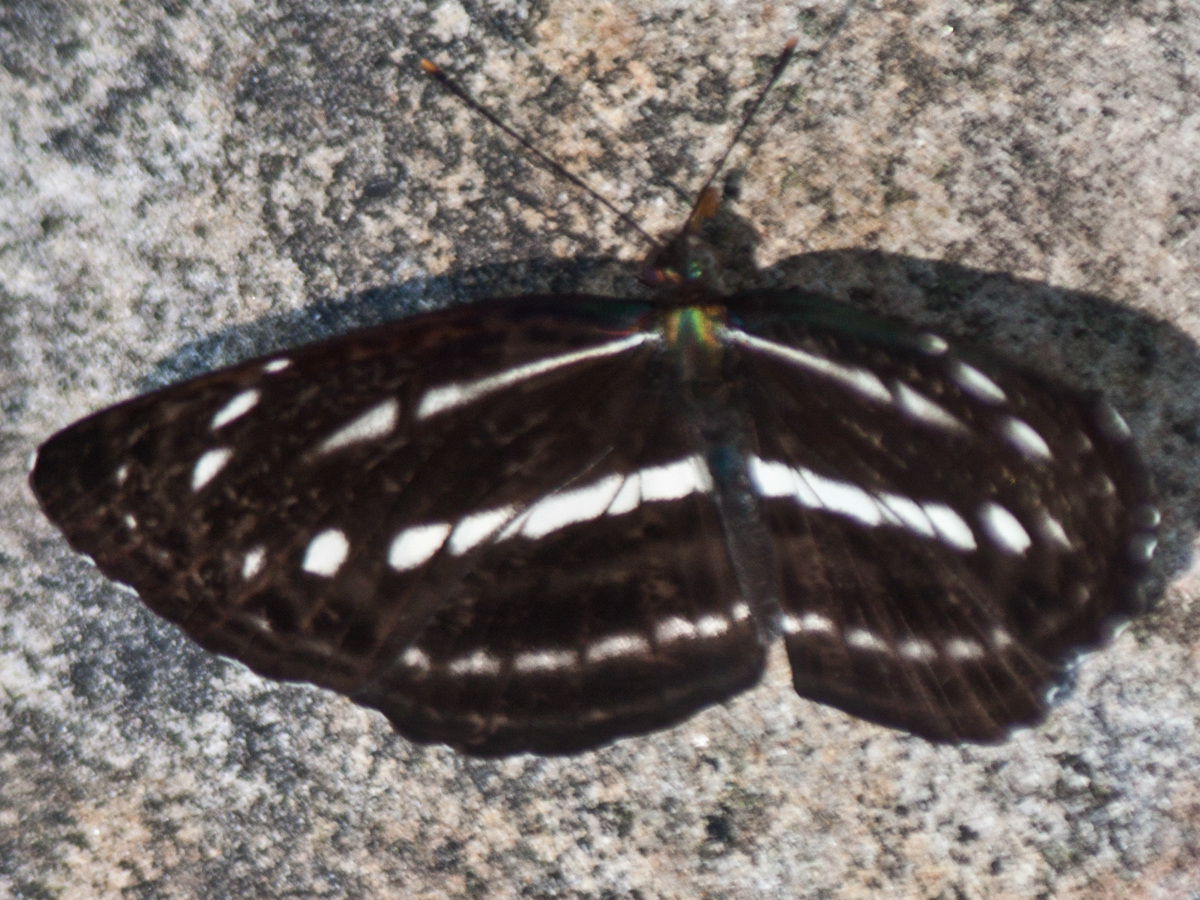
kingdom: Animalia
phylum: Arthropoda
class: Insecta
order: Lepidoptera
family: Nymphalidae
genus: Neptis
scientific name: Neptis nata
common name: Sullied brown sailer
